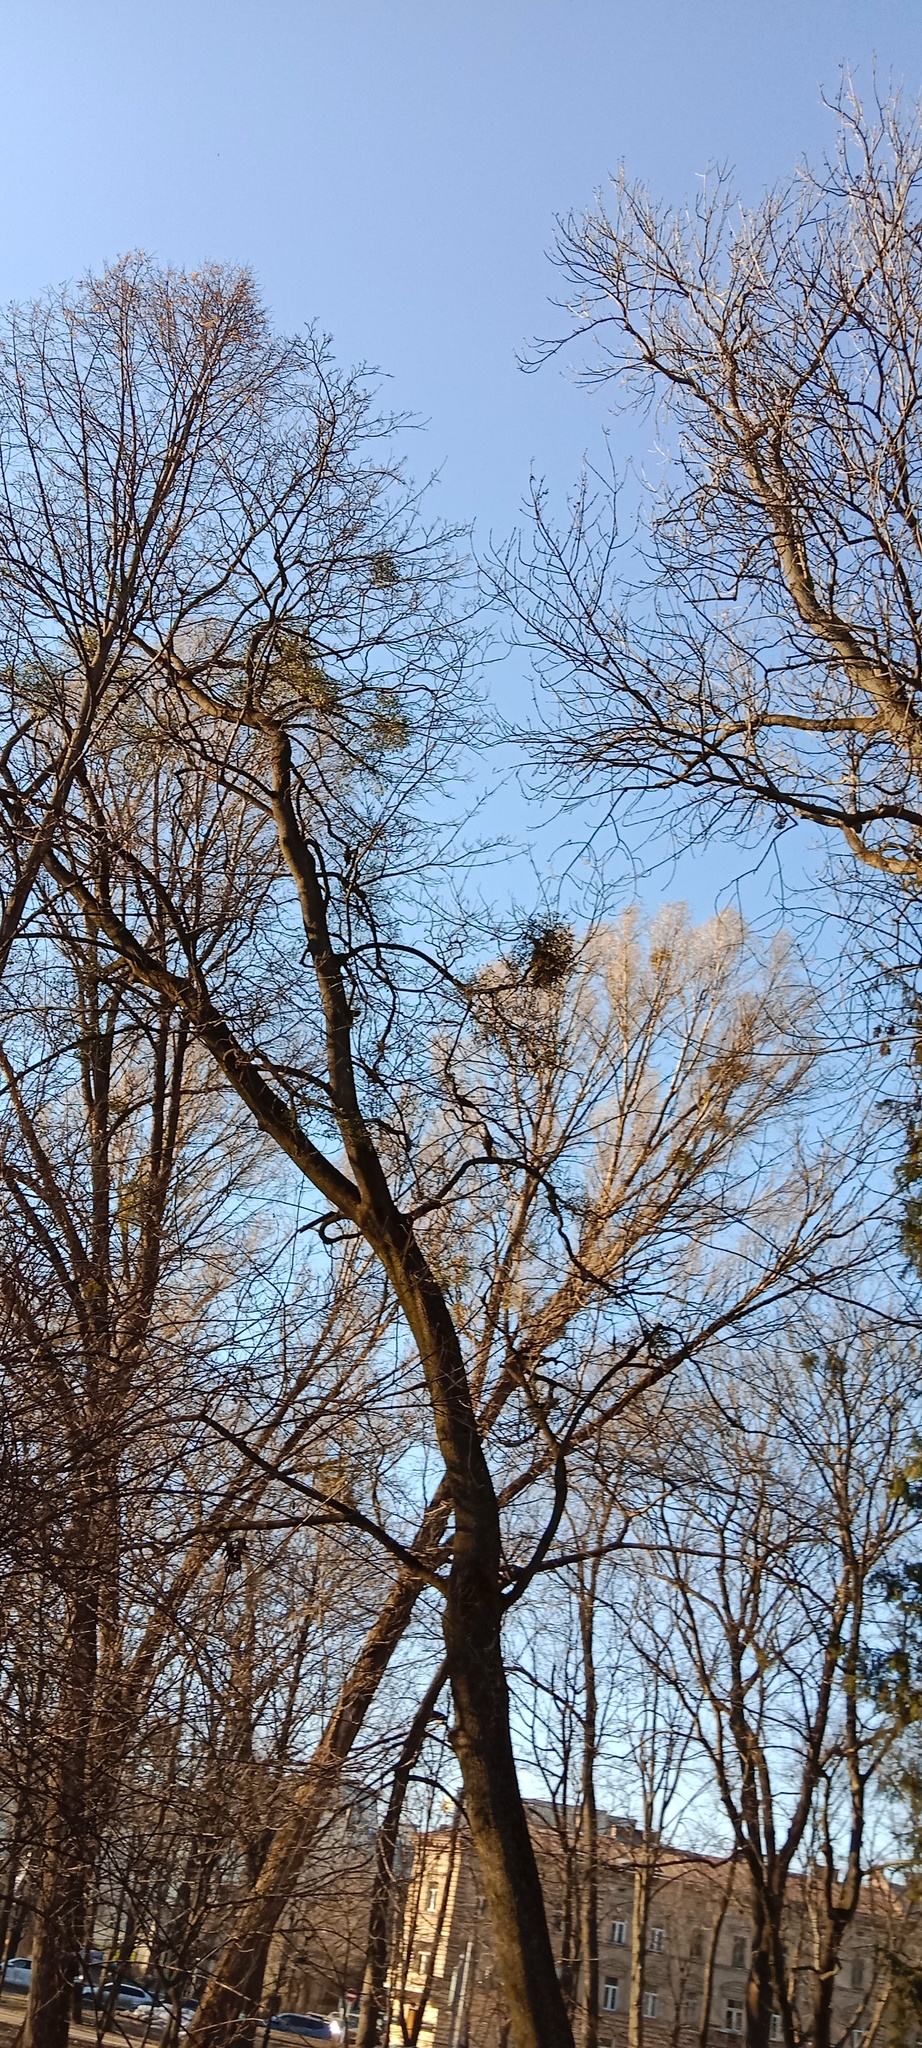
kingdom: Plantae
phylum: Tracheophyta
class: Magnoliopsida
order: Santalales
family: Viscaceae
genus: Viscum
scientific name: Viscum album
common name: Mistletoe
